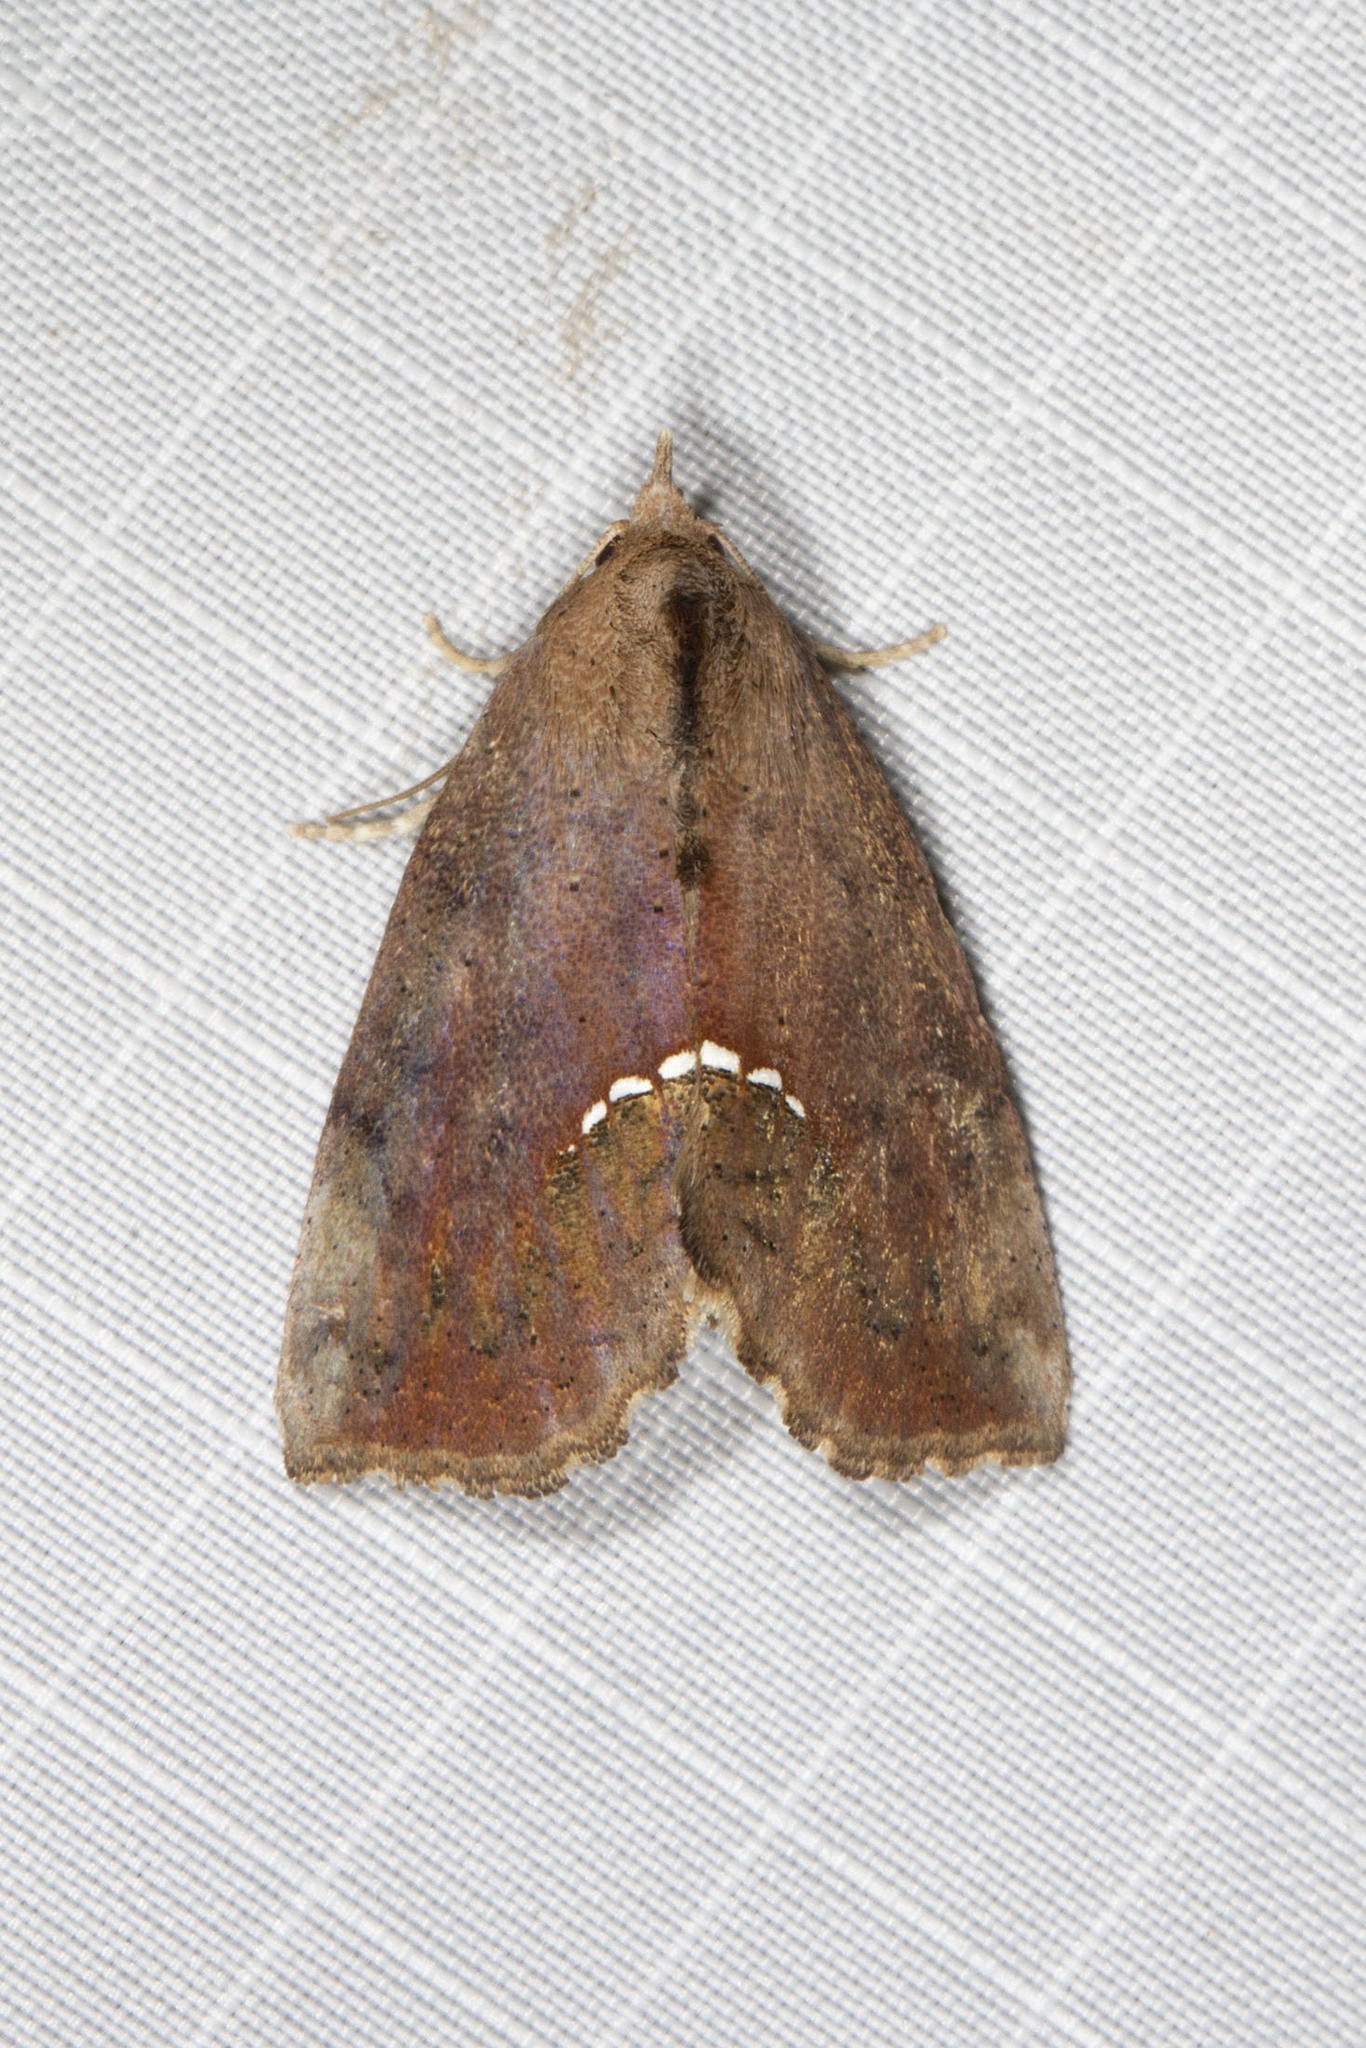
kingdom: Animalia
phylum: Arthropoda
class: Insecta
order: Lepidoptera
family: Erebidae
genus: Hypsoropha
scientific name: Hypsoropha hormos
